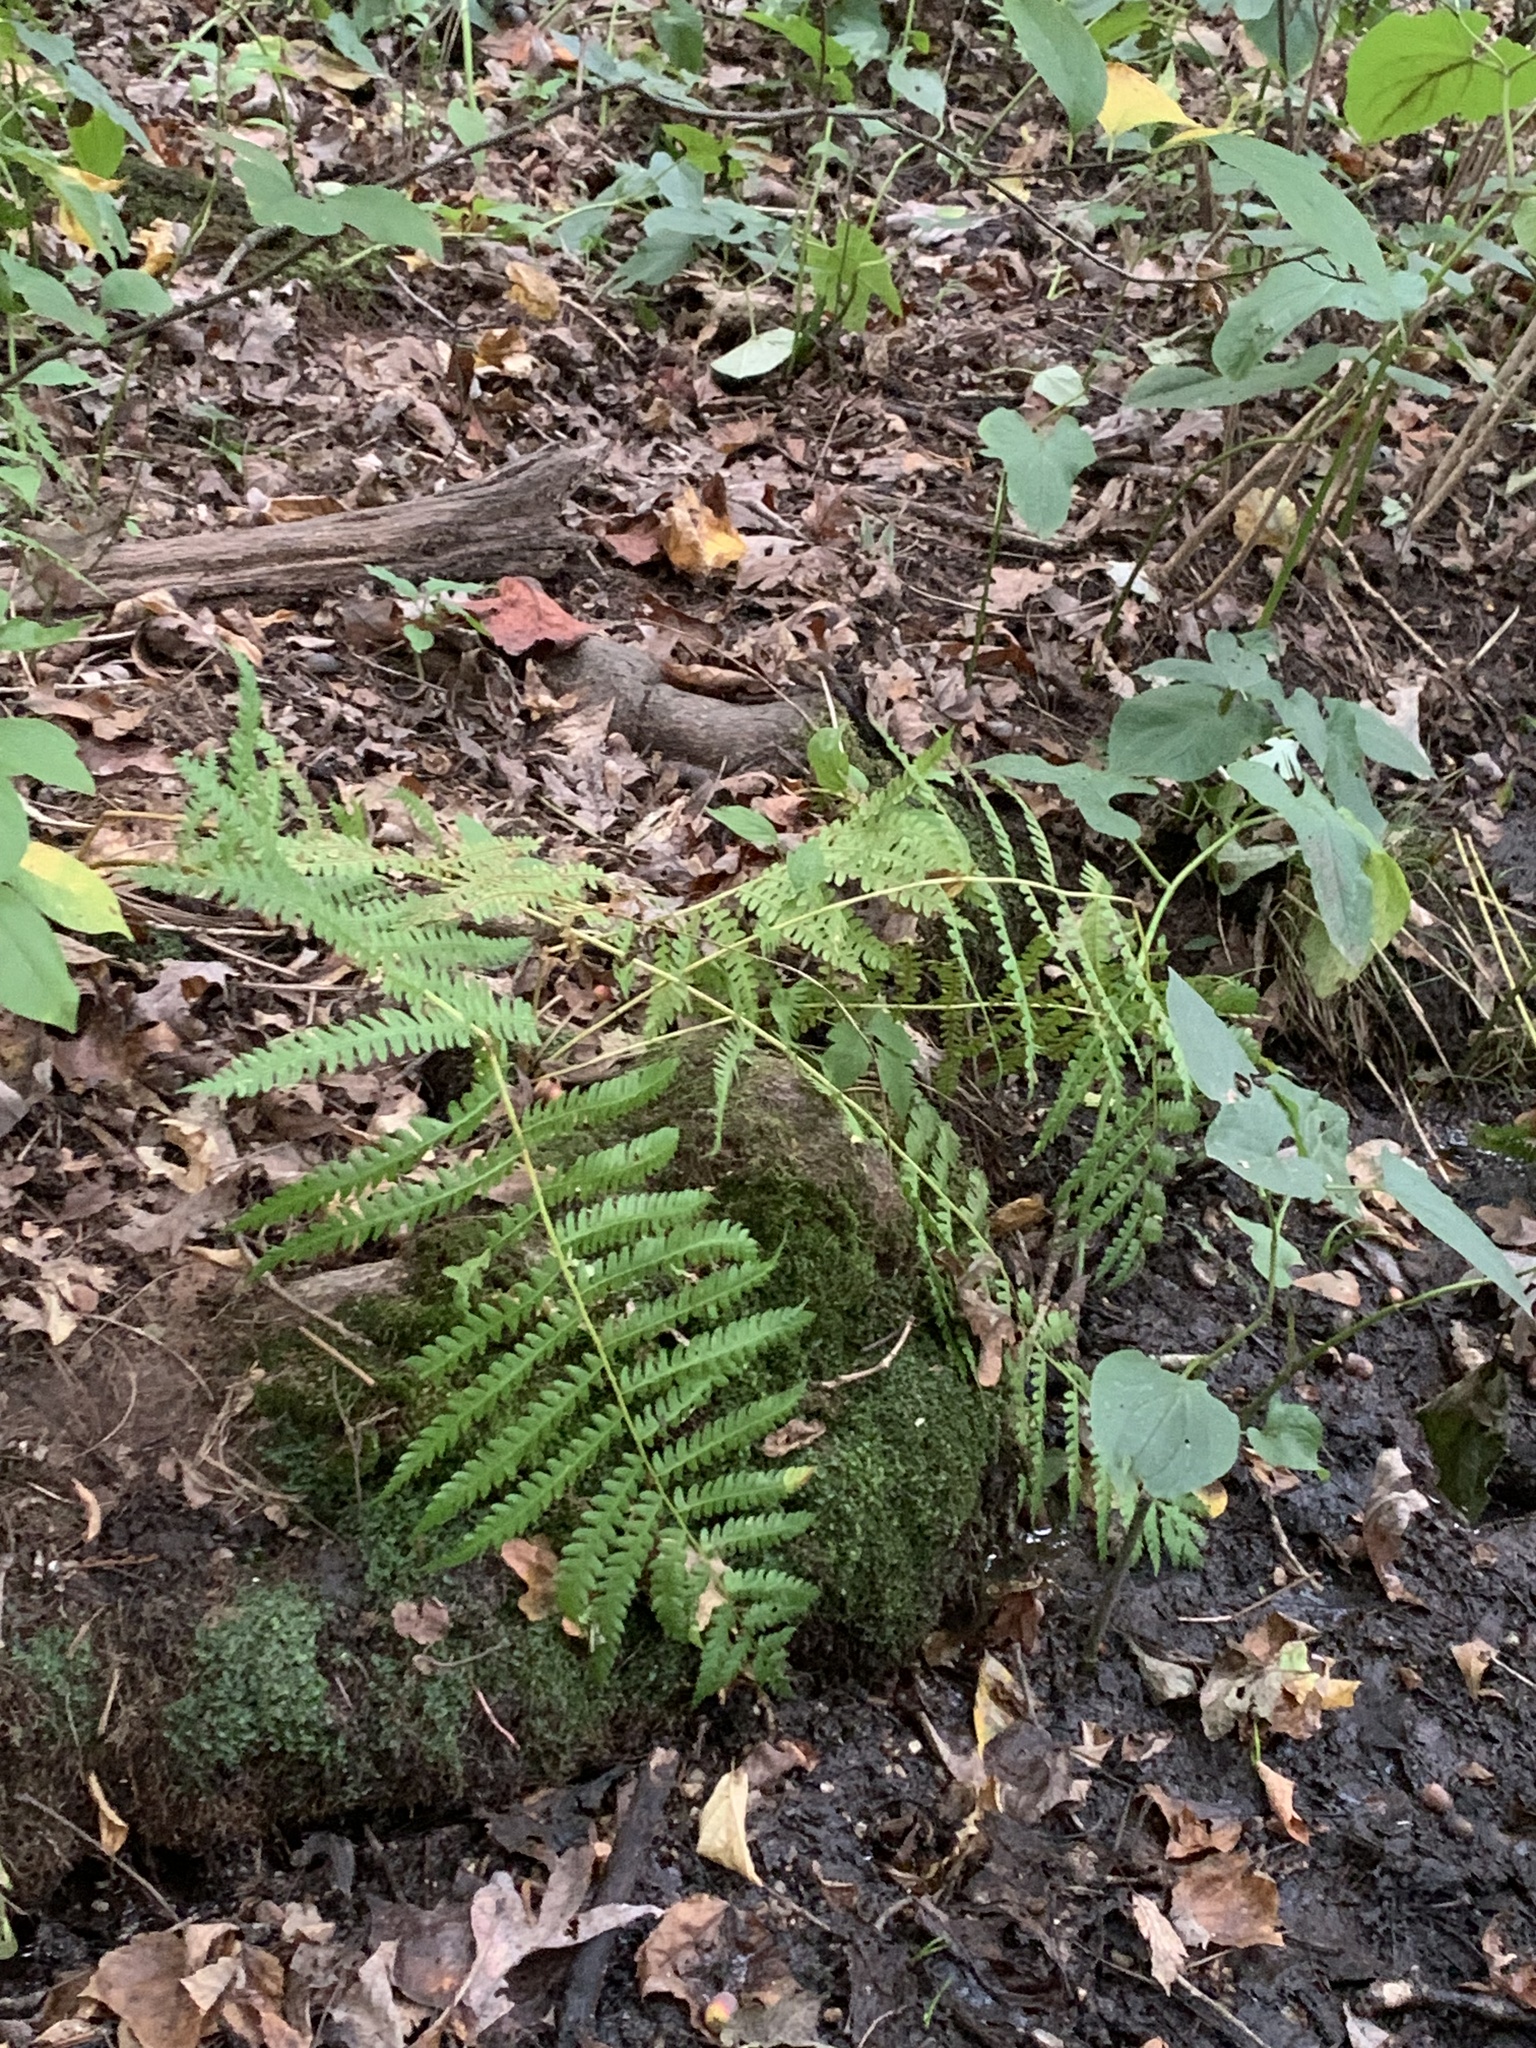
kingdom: Plantae
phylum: Tracheophyta
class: Polypodiopsida
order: Osmundales
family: Osmundaceae
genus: Osmundastrum
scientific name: Osmundastrum cinnamomeum
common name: Cinnamon fern
